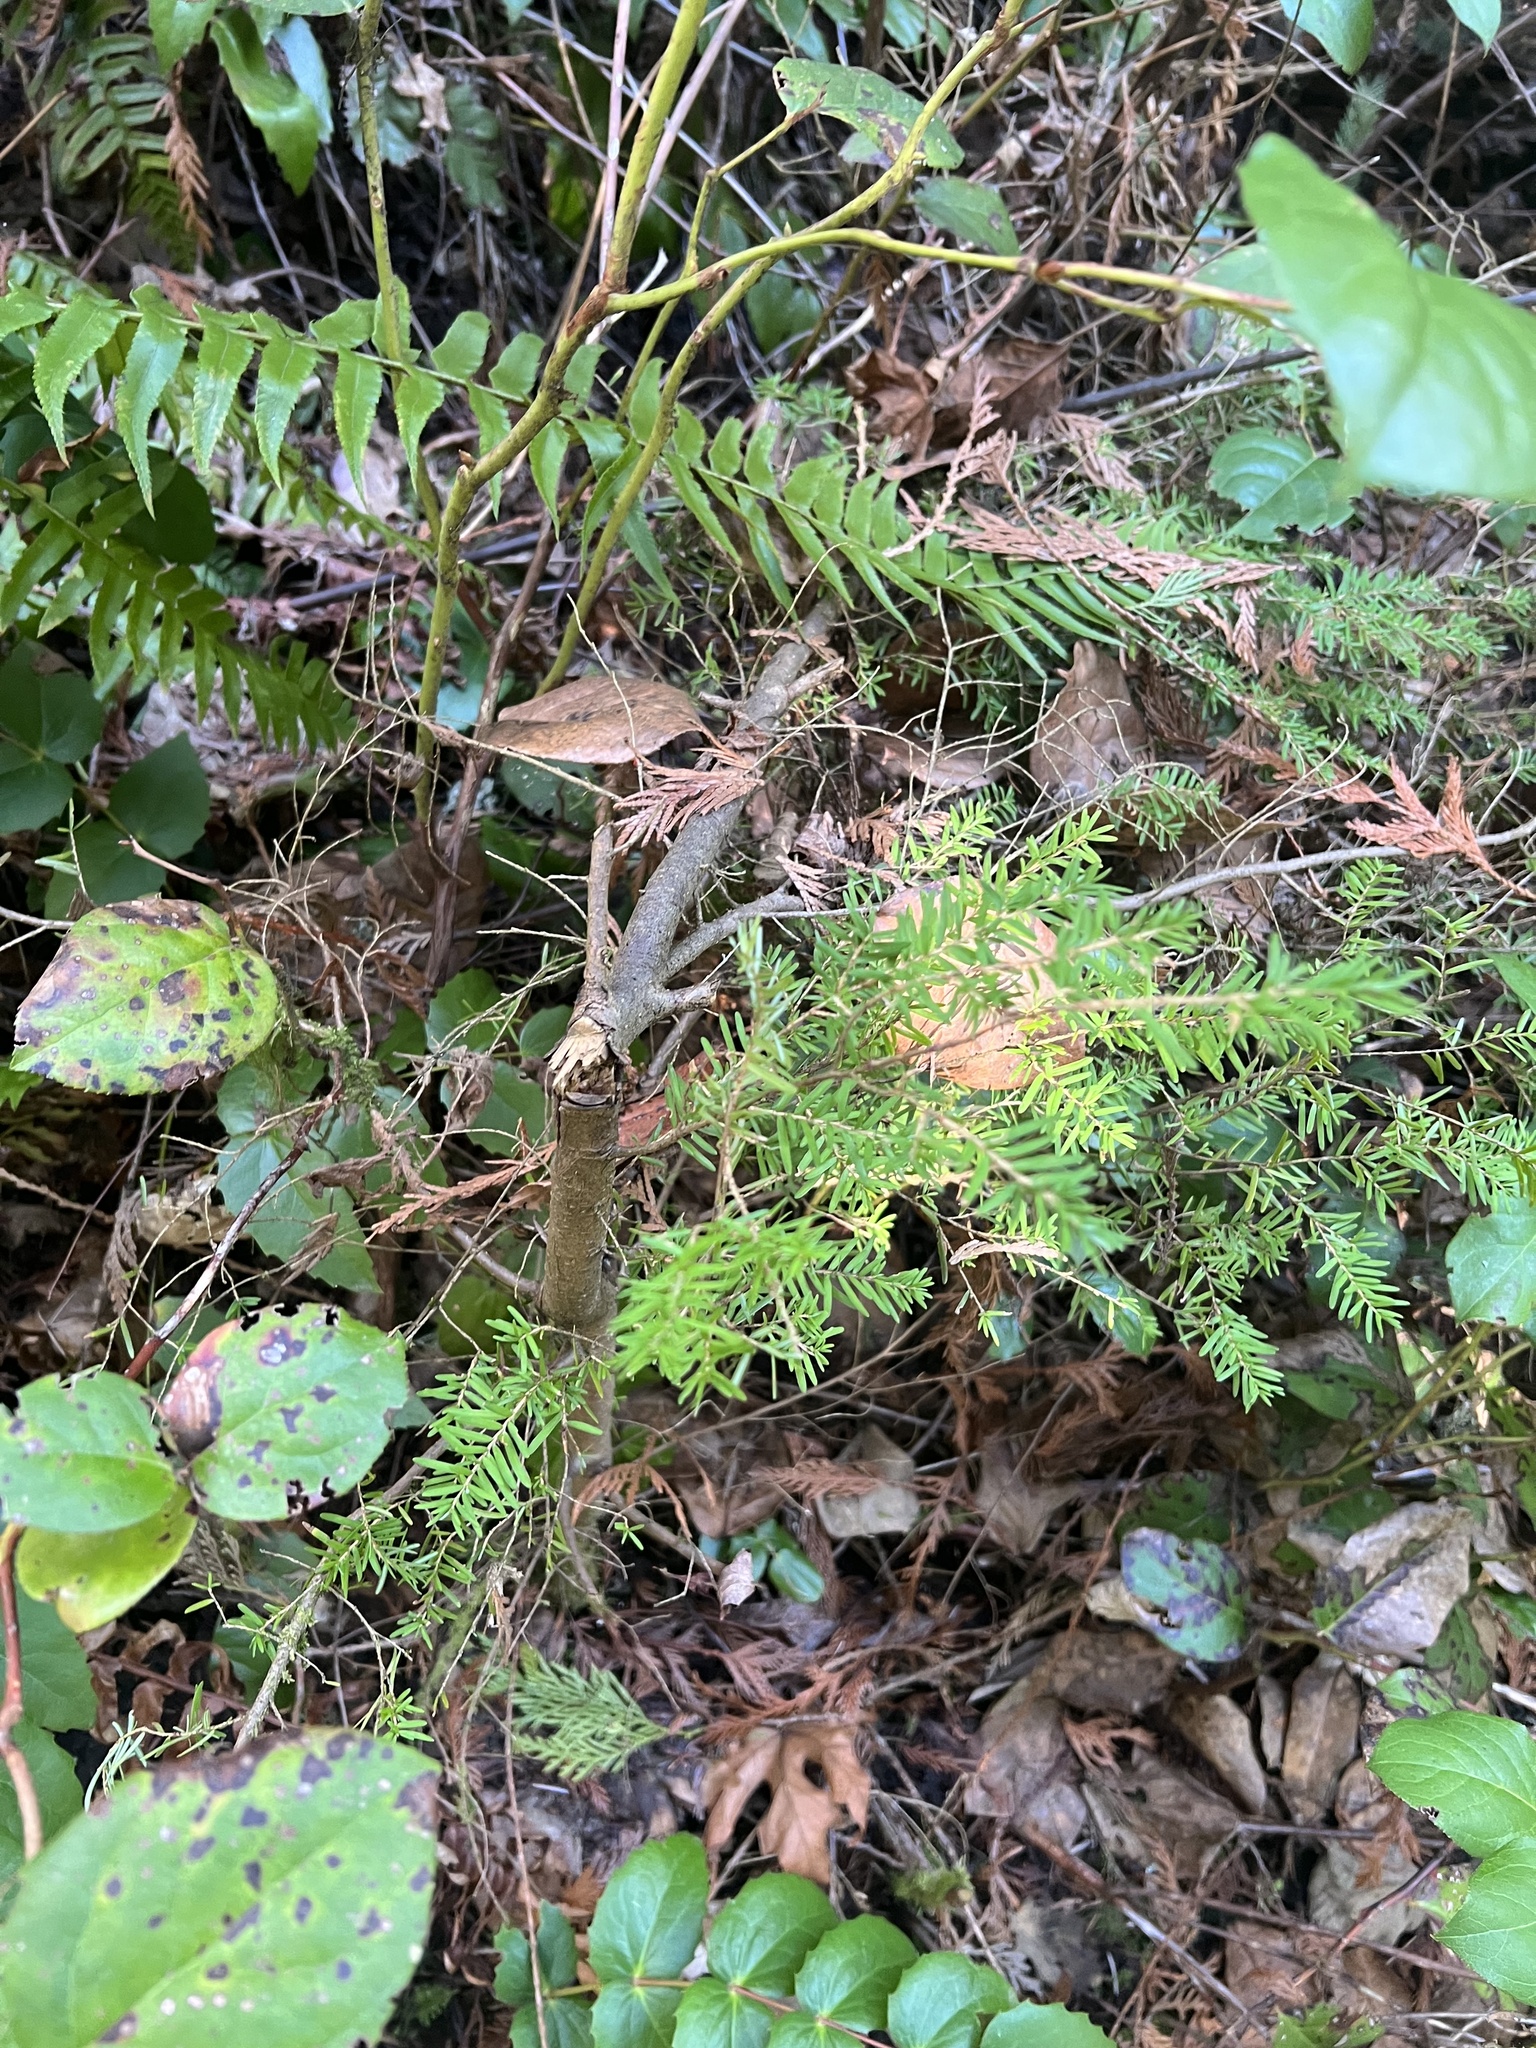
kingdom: Plantae
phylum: Tracheophyta
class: Pinopsida
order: Pinales
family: Pinaceae
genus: Tsuga
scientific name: Tsuga heterophylla
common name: Western hemlock
